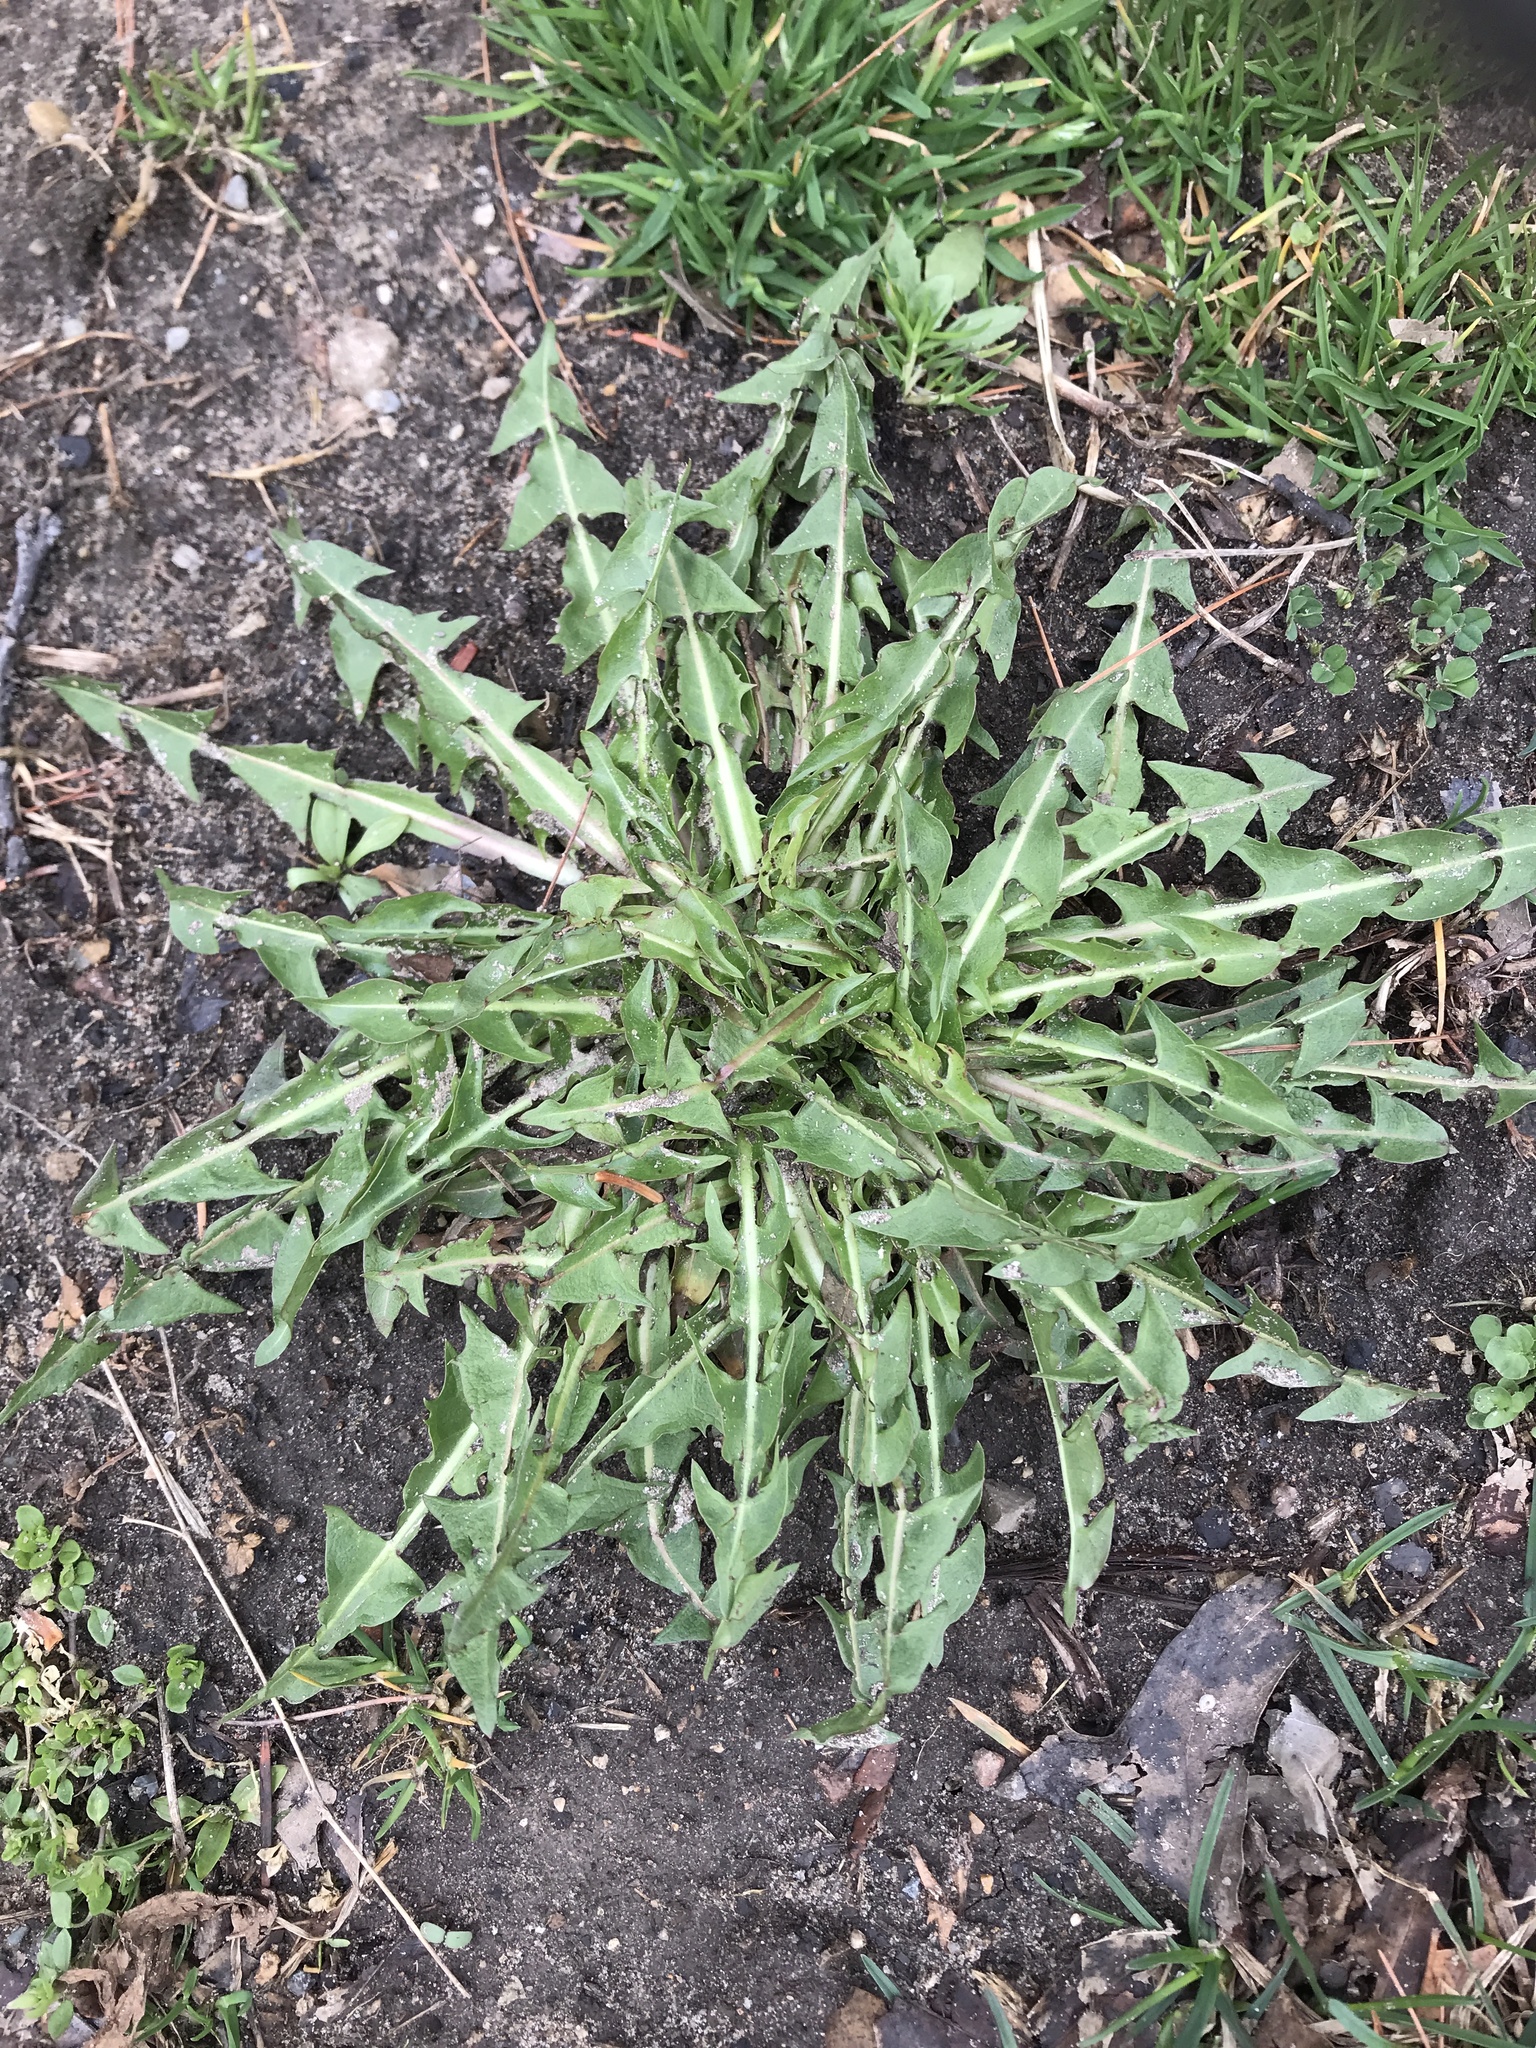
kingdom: Plantae
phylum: Tracheophyta
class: Magnoliopsida
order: Asterales
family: Asteraceae
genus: Taraxacum
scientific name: Taraxacum officinale
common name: Common dandelion
